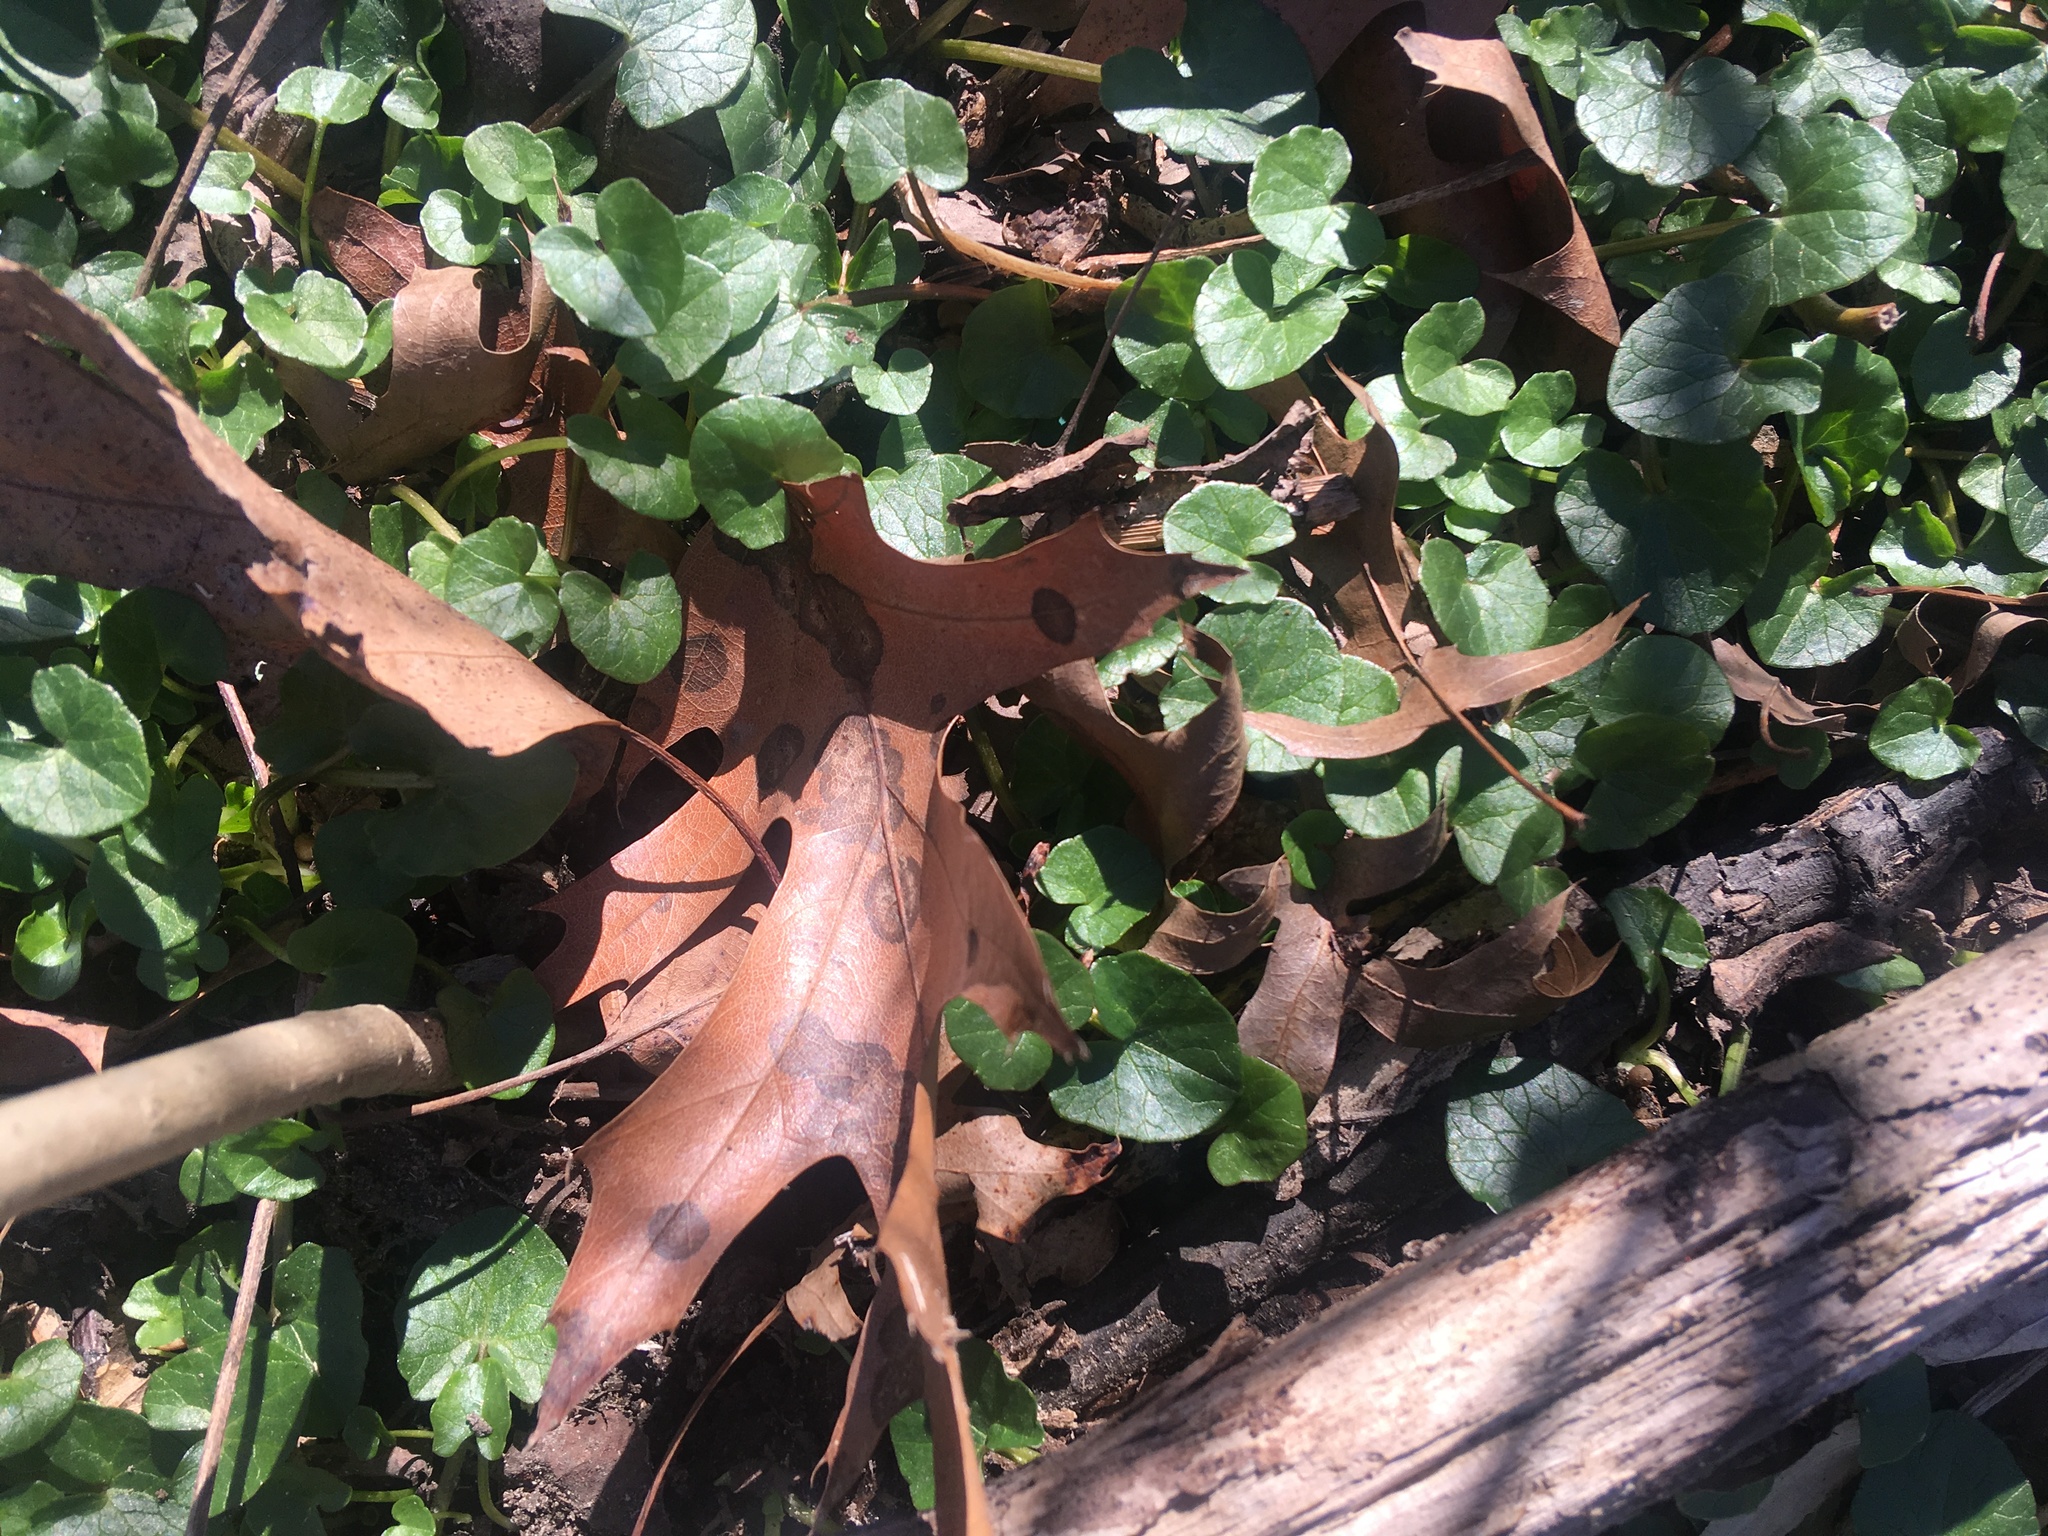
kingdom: Plantae
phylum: Tracheophyta
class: Magnoliopsida
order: Ranunculales
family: Ranunculaceae
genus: Ficaria
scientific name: Ficaria verna
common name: Lesser celandine
